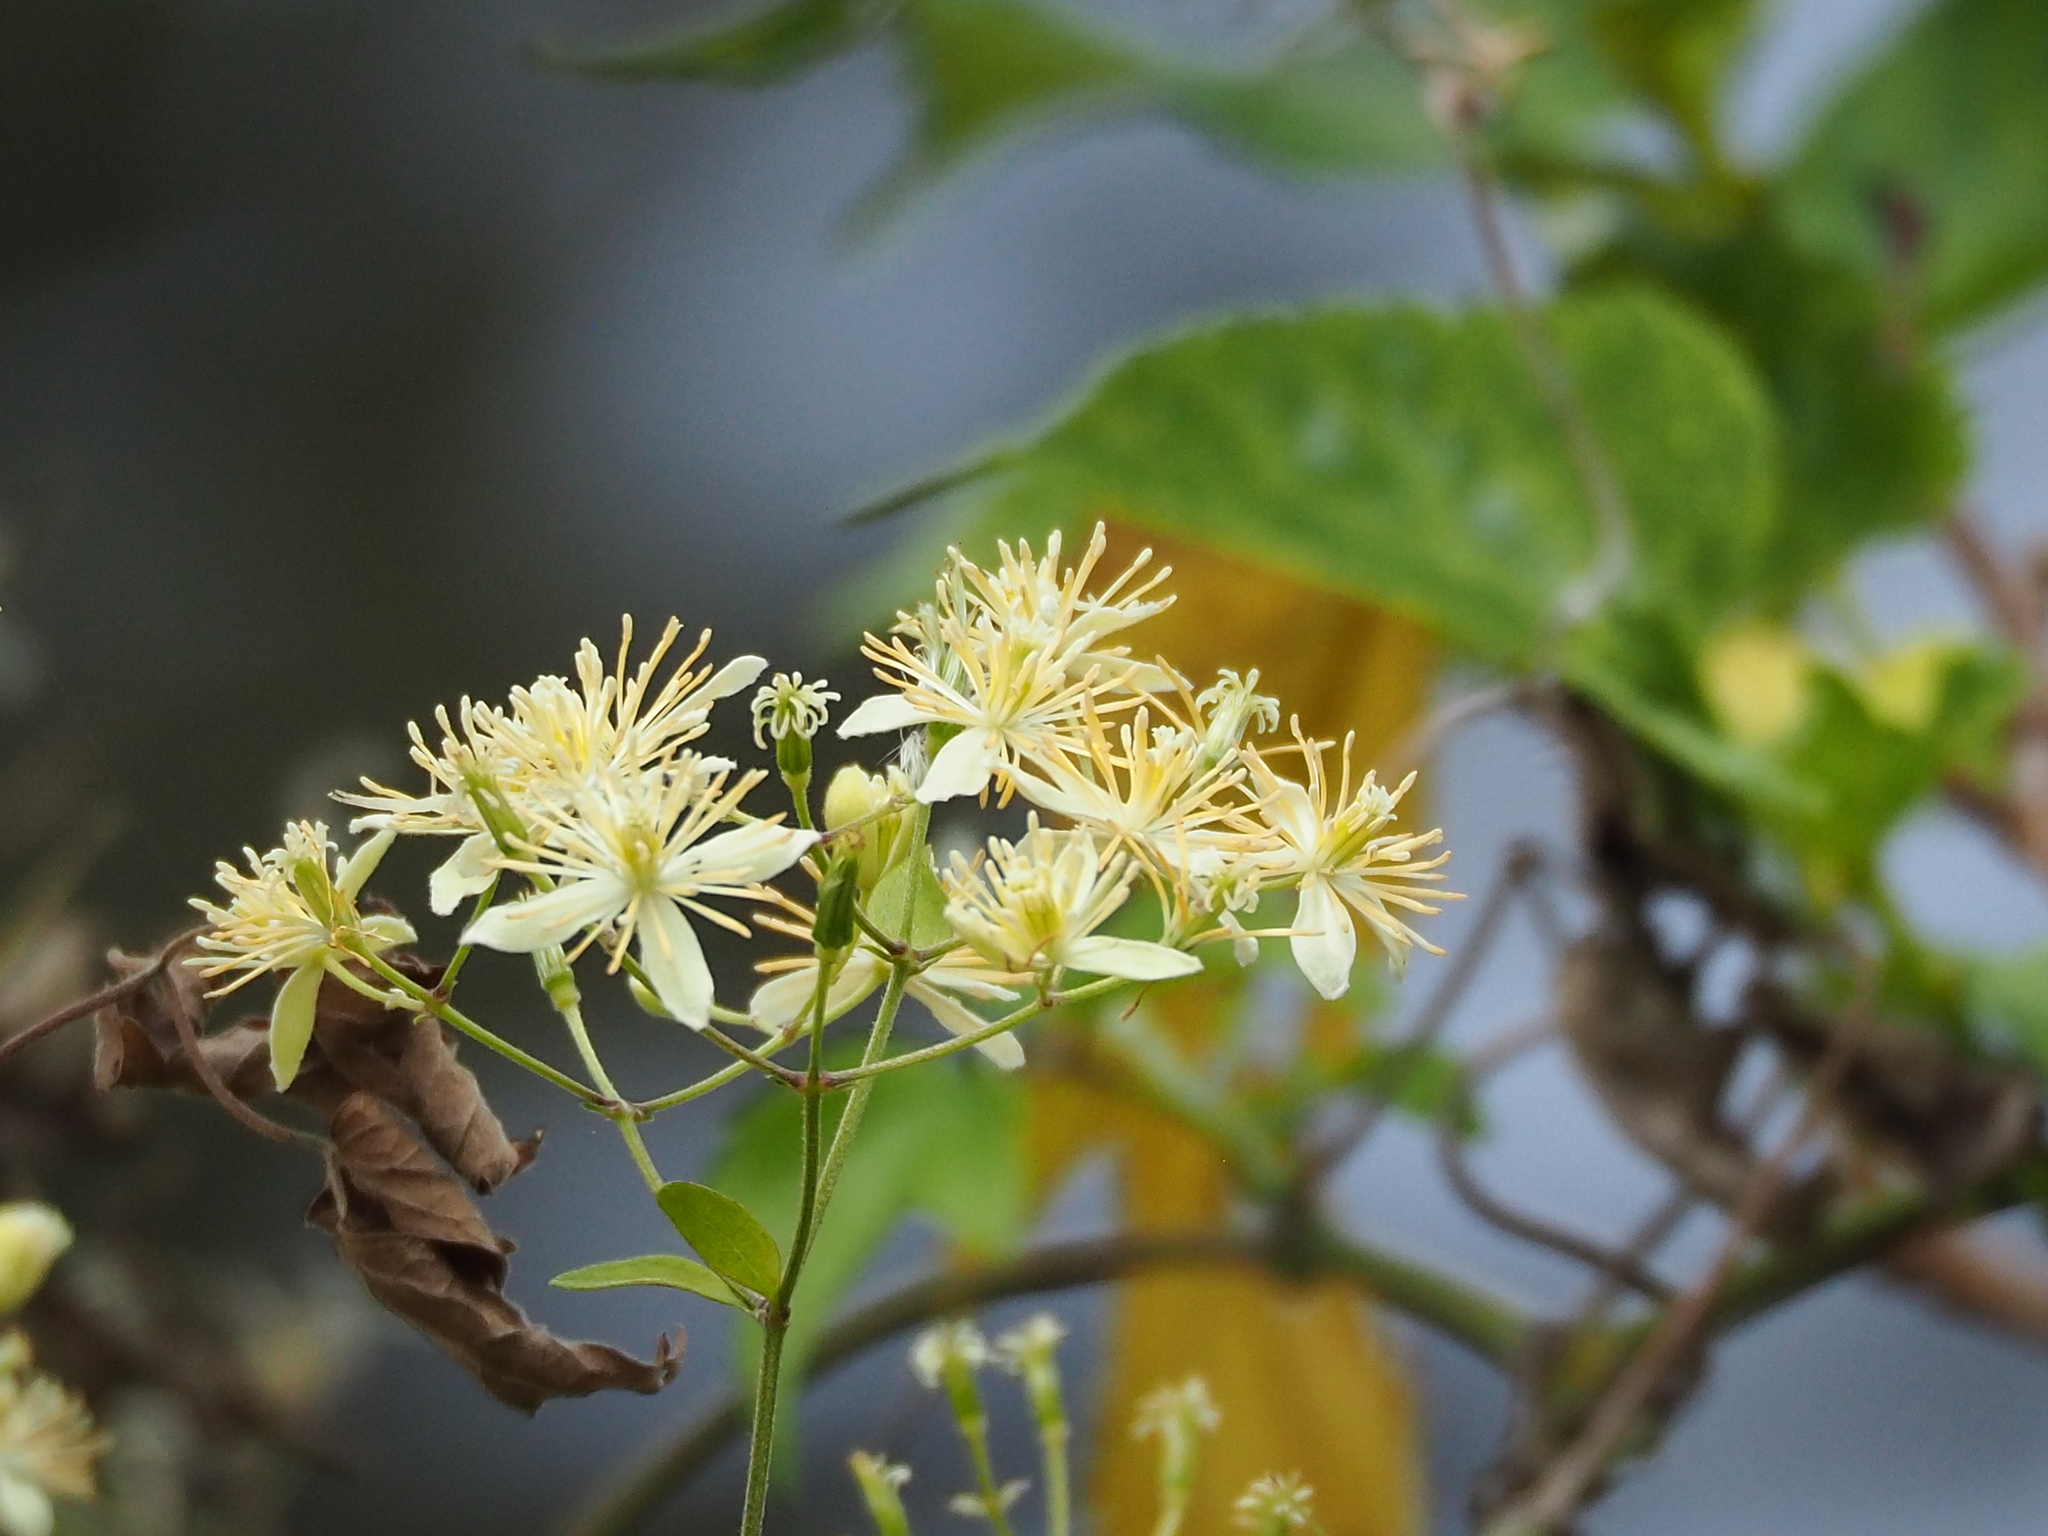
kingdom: Plantae
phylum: Tracheophyta
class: Magnoliopsida
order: Ranunculales
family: Ranunculaceae
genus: Clematis
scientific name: Clematis grata
